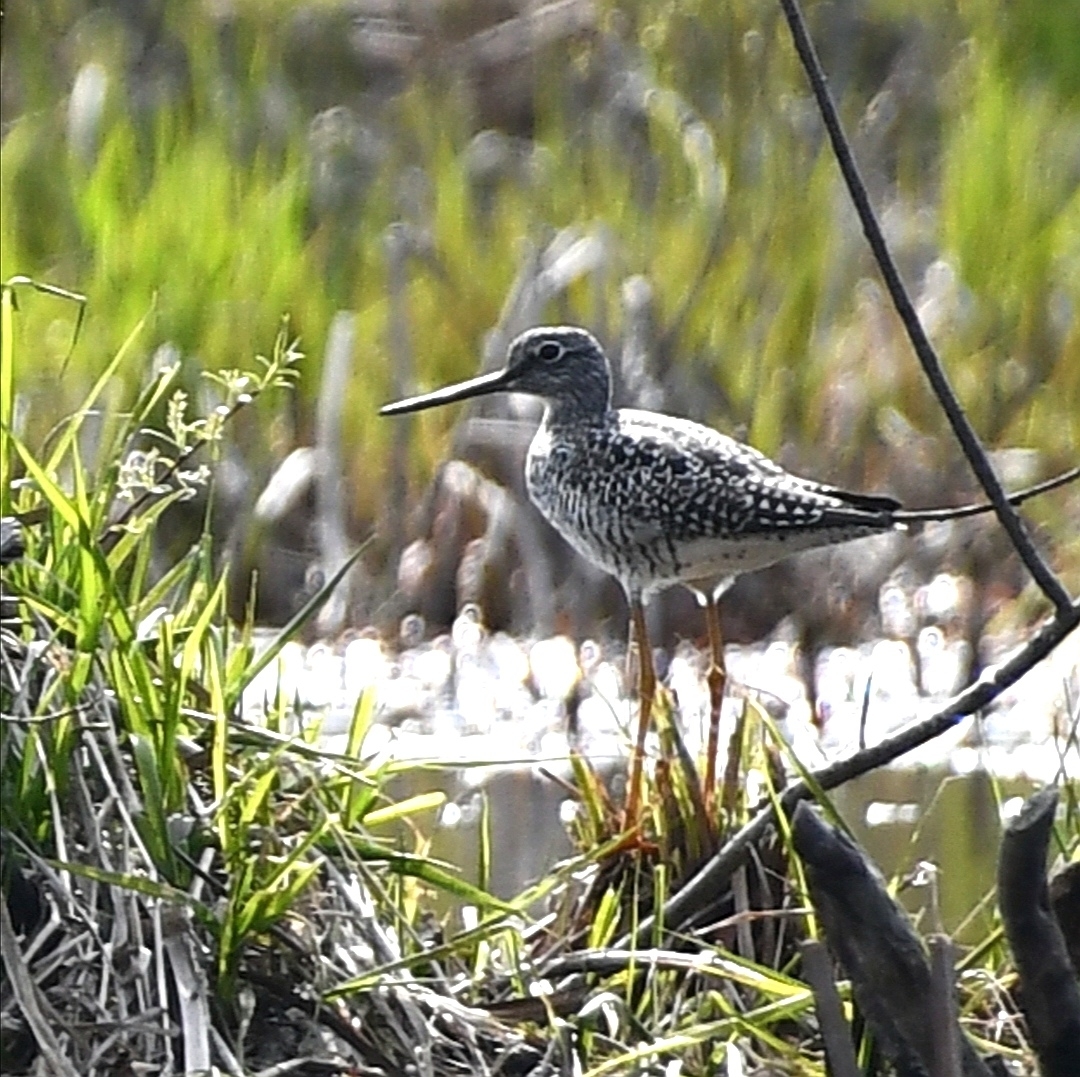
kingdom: Animalia
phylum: Chordata
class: Aves
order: Charadriiformes
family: Scolopacidae
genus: Tringa
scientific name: Tringa melanoleuca
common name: Greater yellowlegs
